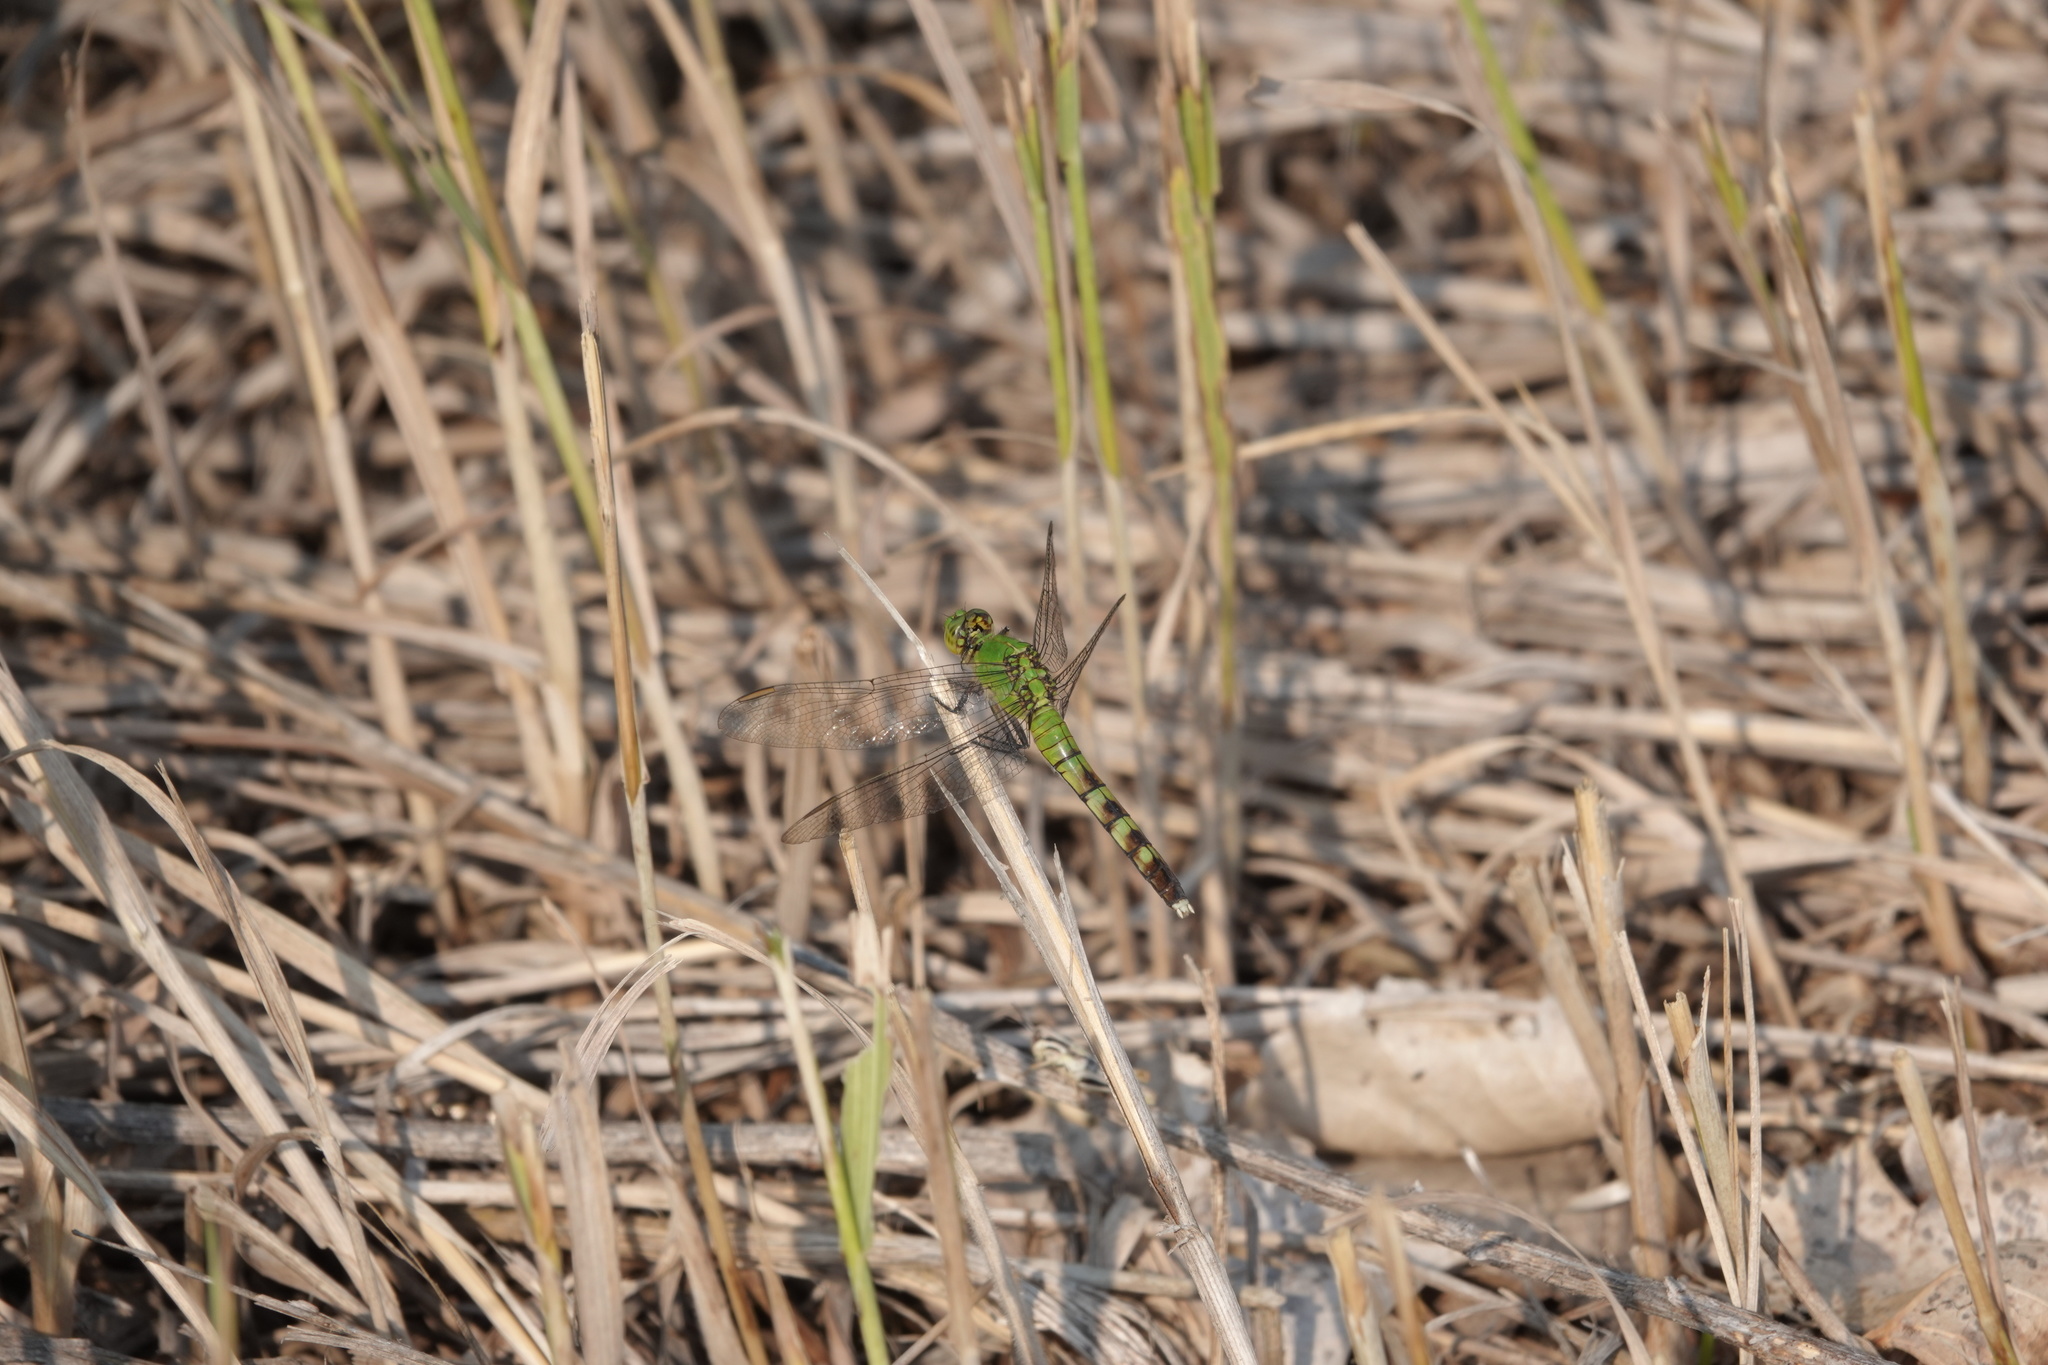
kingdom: Animalia
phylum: Arthropoda
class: Insecta
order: Odonata
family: Libellulidae
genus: Erythemis
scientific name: Erythemis simplicicollis
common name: Eastern pondhawk
